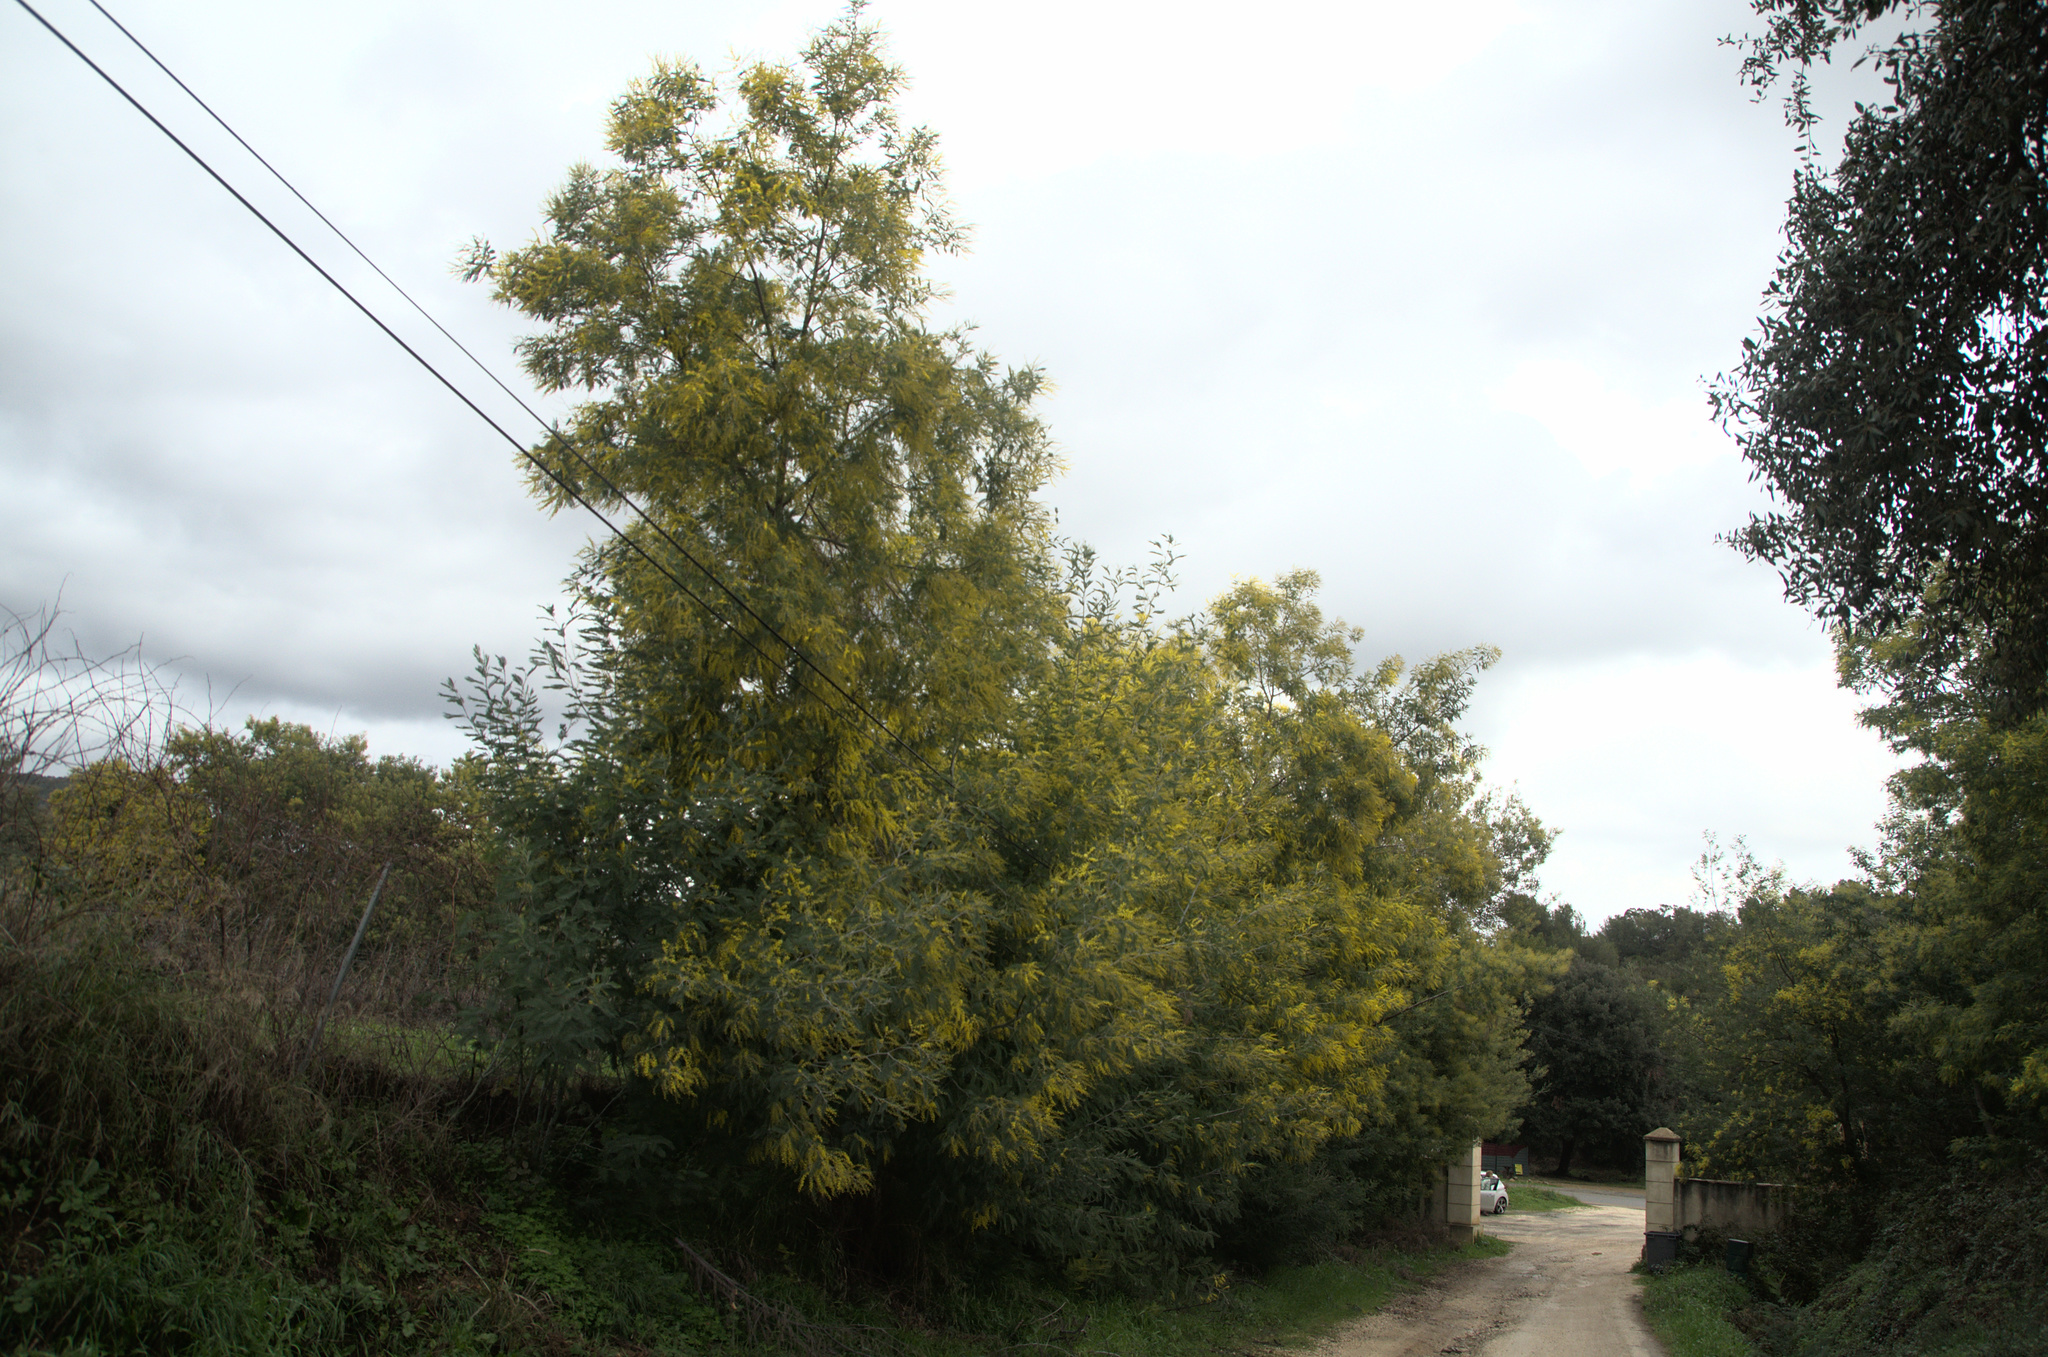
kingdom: Plantae
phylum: Tracheophyta
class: Magnoliopsida
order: Fabales
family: Fabaceae
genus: Acacia
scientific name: Acacia dealbata
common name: Silver wattle
